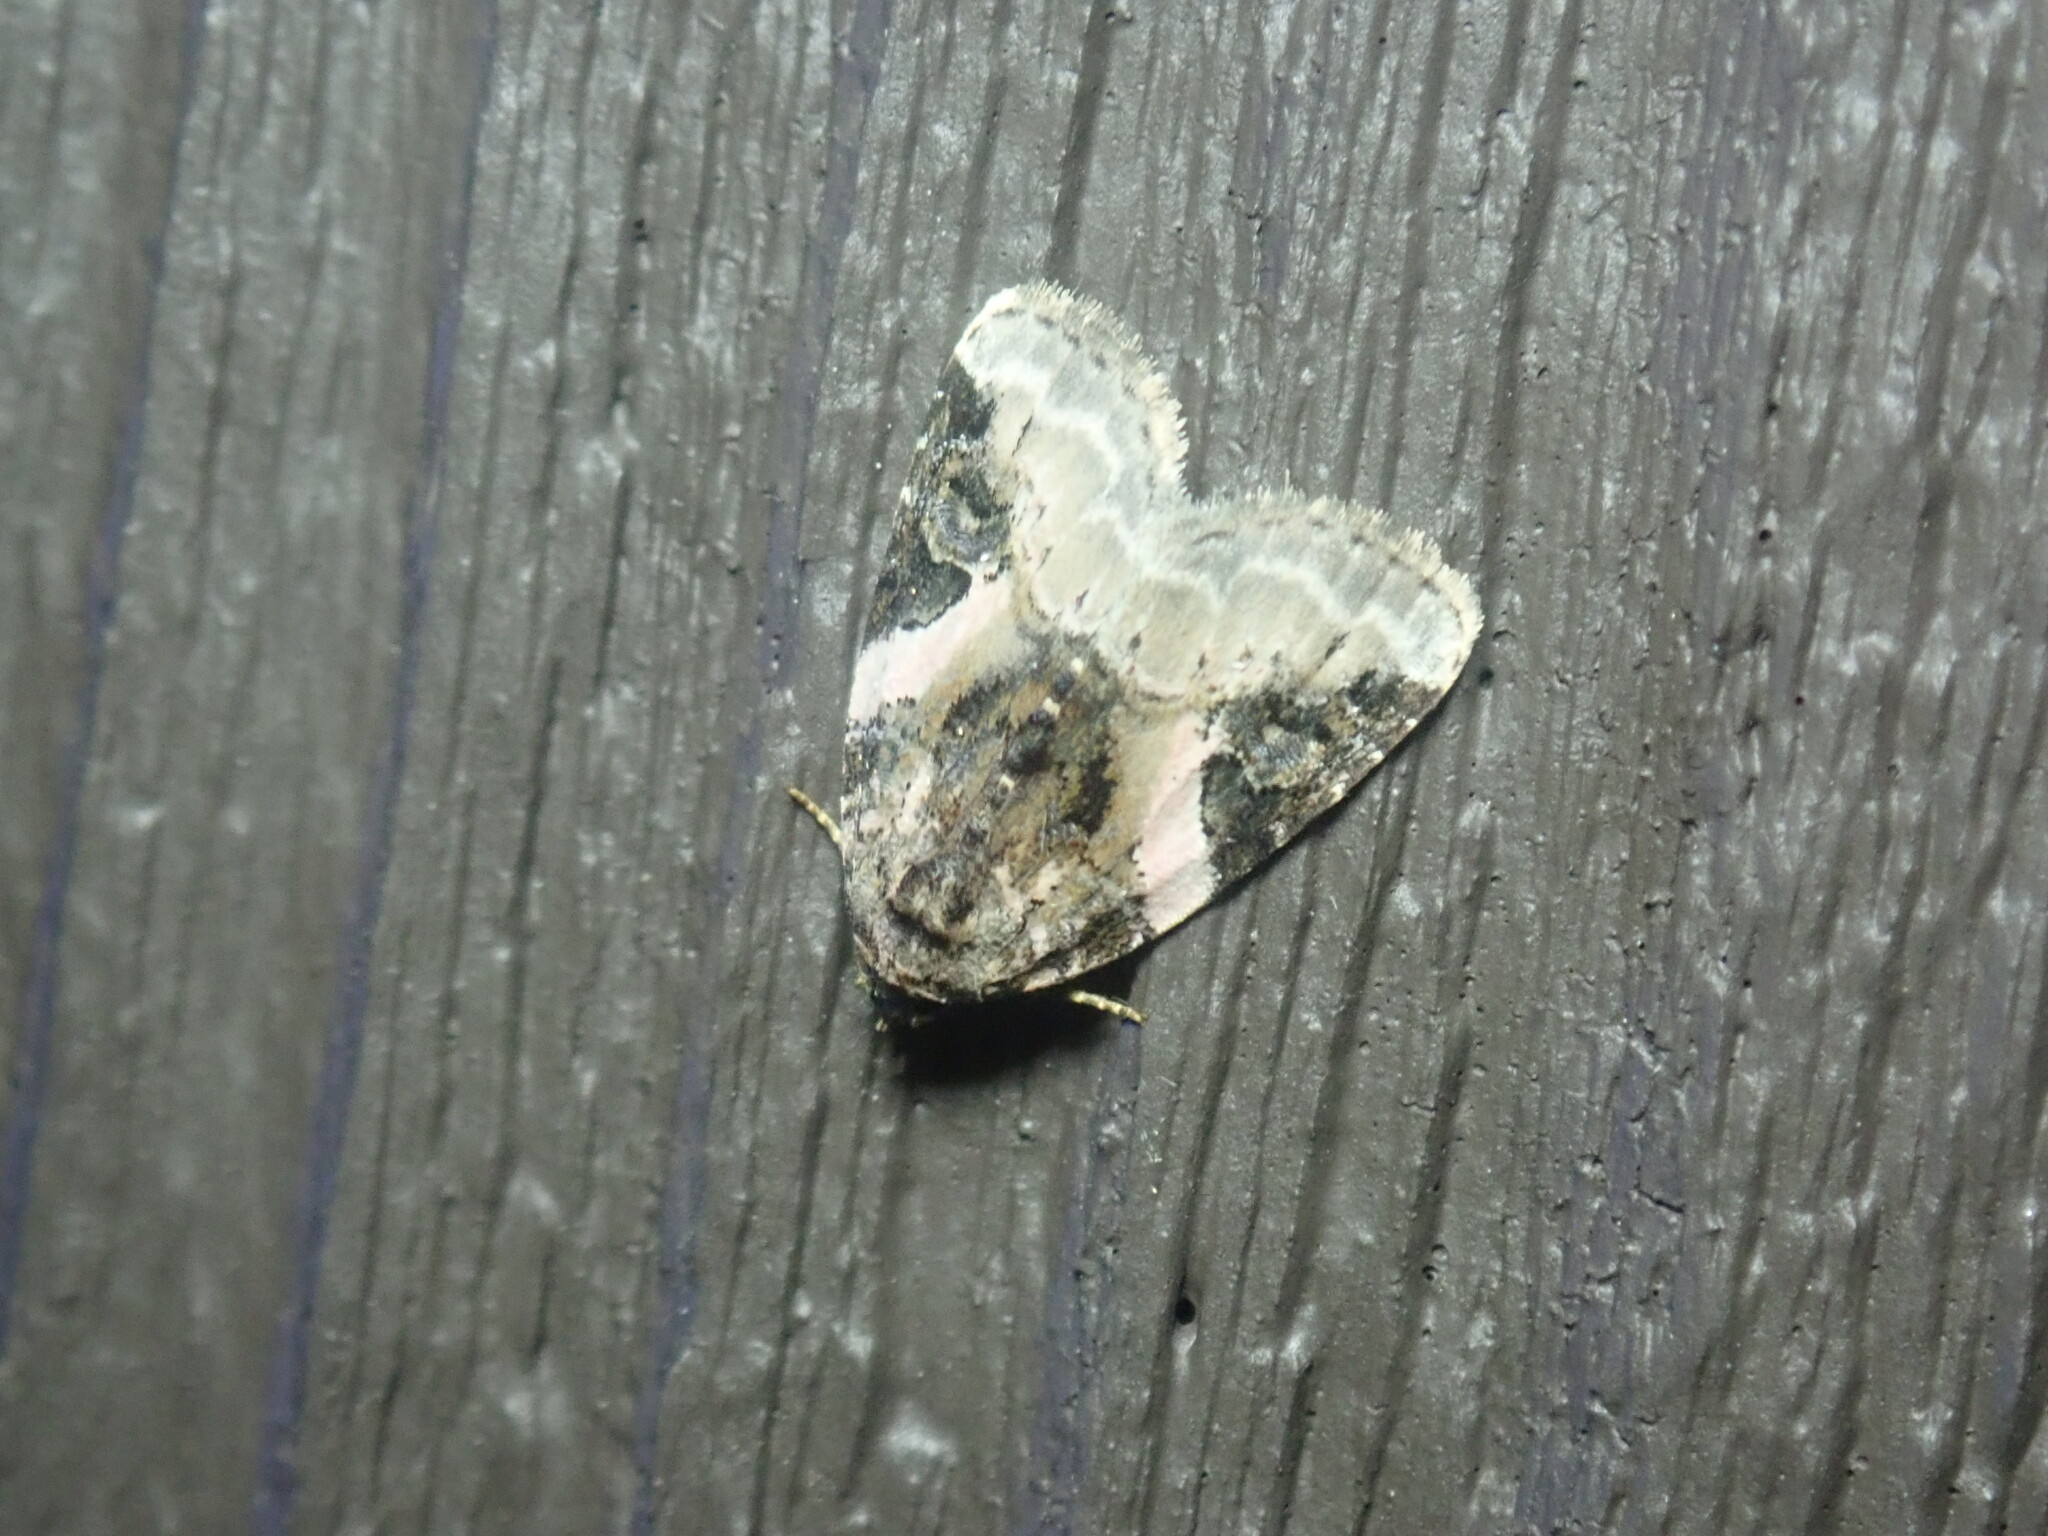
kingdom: Animalia
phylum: Arthropoda
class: Insecta
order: Lepidoptera
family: Noctuidae
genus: Pseudeustrotia
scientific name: Pseudeustrotia carneola
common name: Pink-barred lithacodia moth
